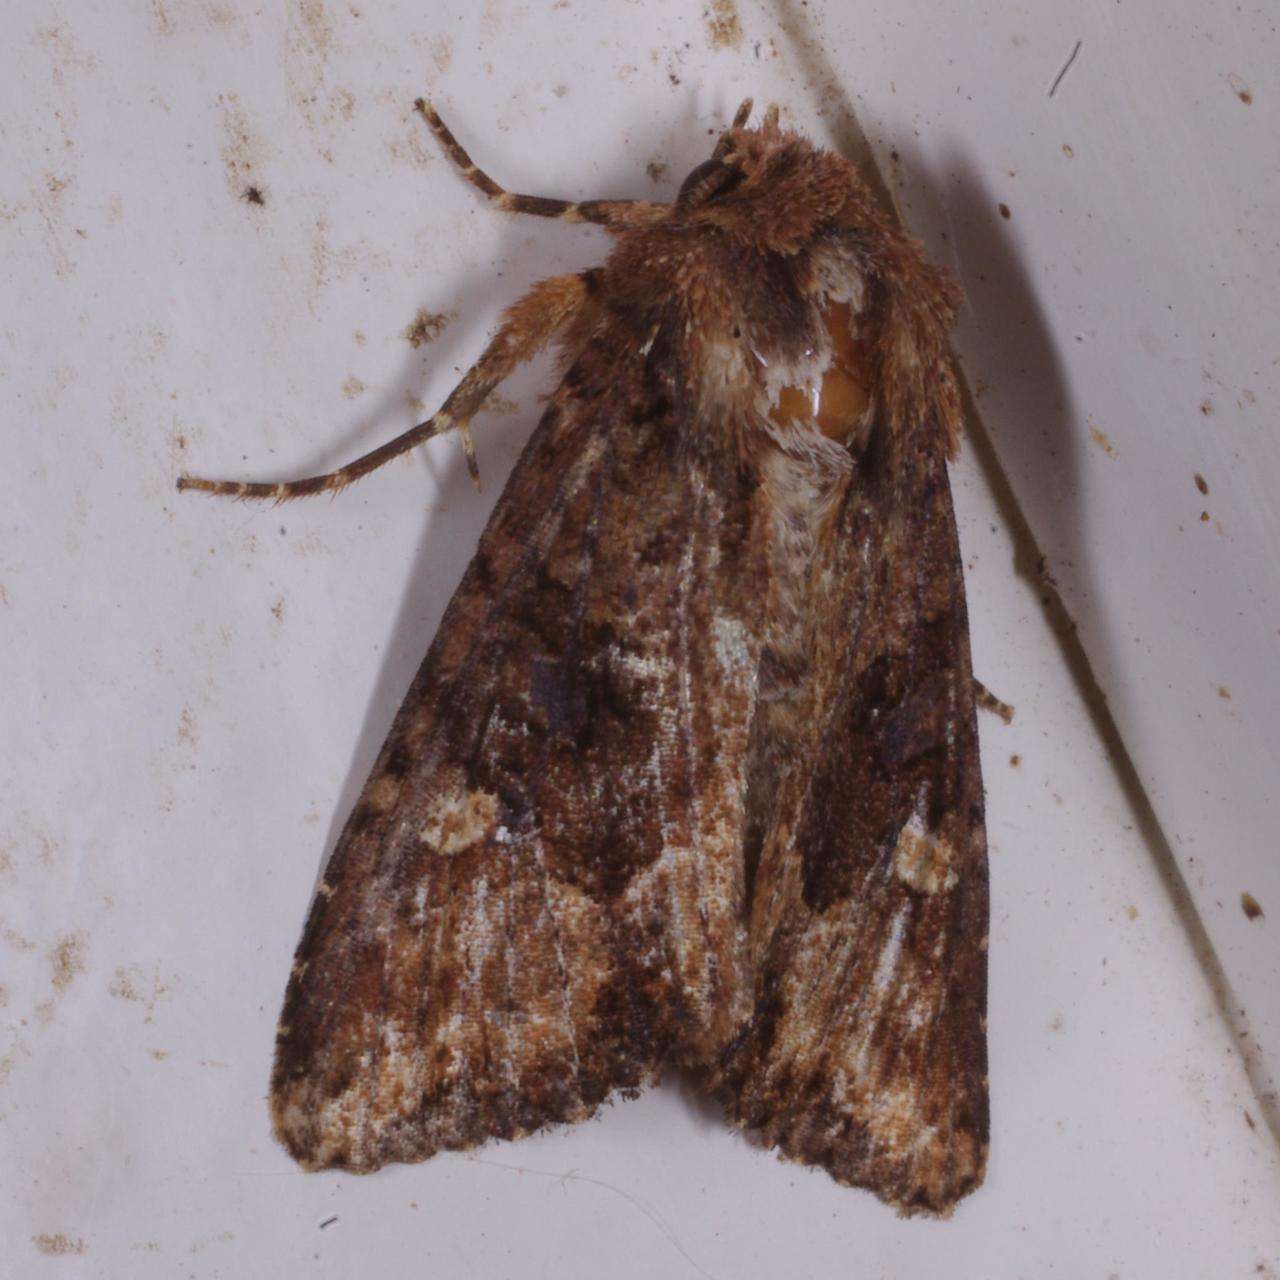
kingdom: Animalia
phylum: Arthropoda
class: Insecta
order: Lepidoptera
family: Noctuidae
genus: Neumichtis
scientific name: Neumichtis saliaris
